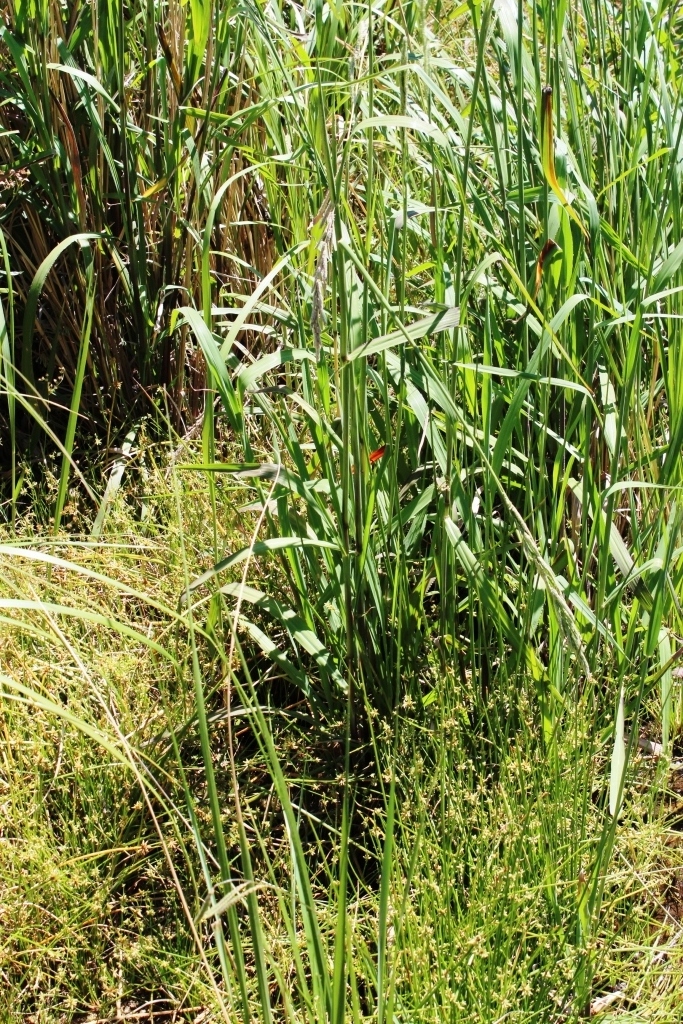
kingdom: Plantae
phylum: Tracheophyta
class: Liliopsida
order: Poales
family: Poaceae
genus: Cenchrus
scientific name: Cenchrus caudatus
